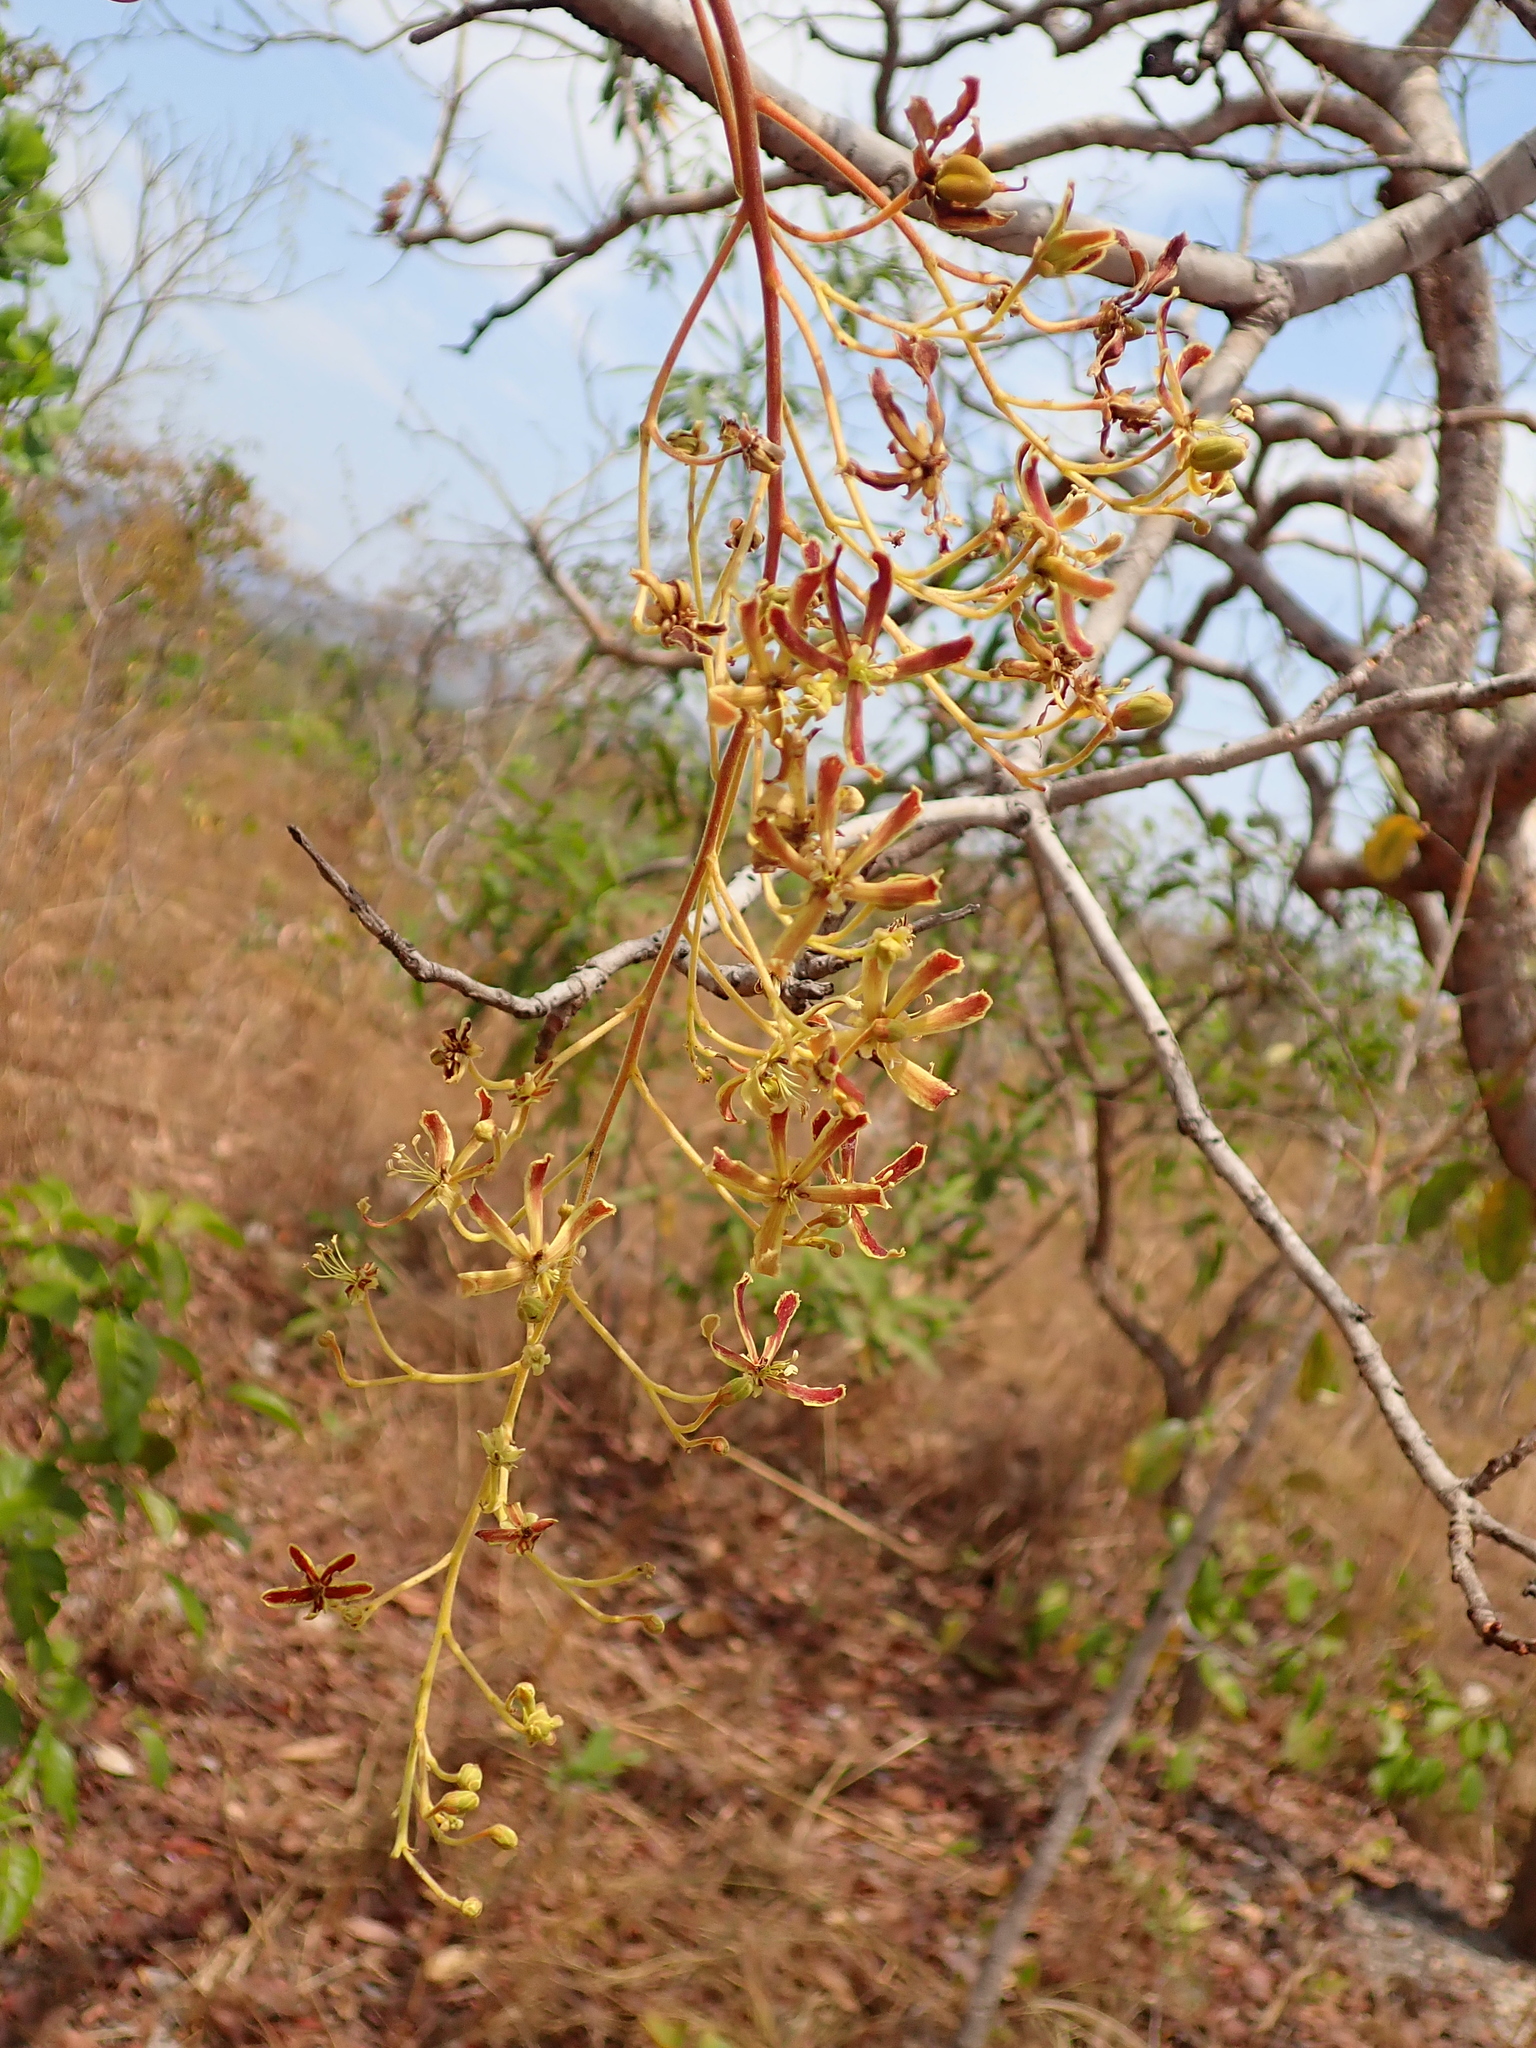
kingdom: Plantae
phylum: Tracheophyta
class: Magnoliopsida
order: Sapindales
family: Sapindaceae
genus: Magonia
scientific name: Magonia pubescens
